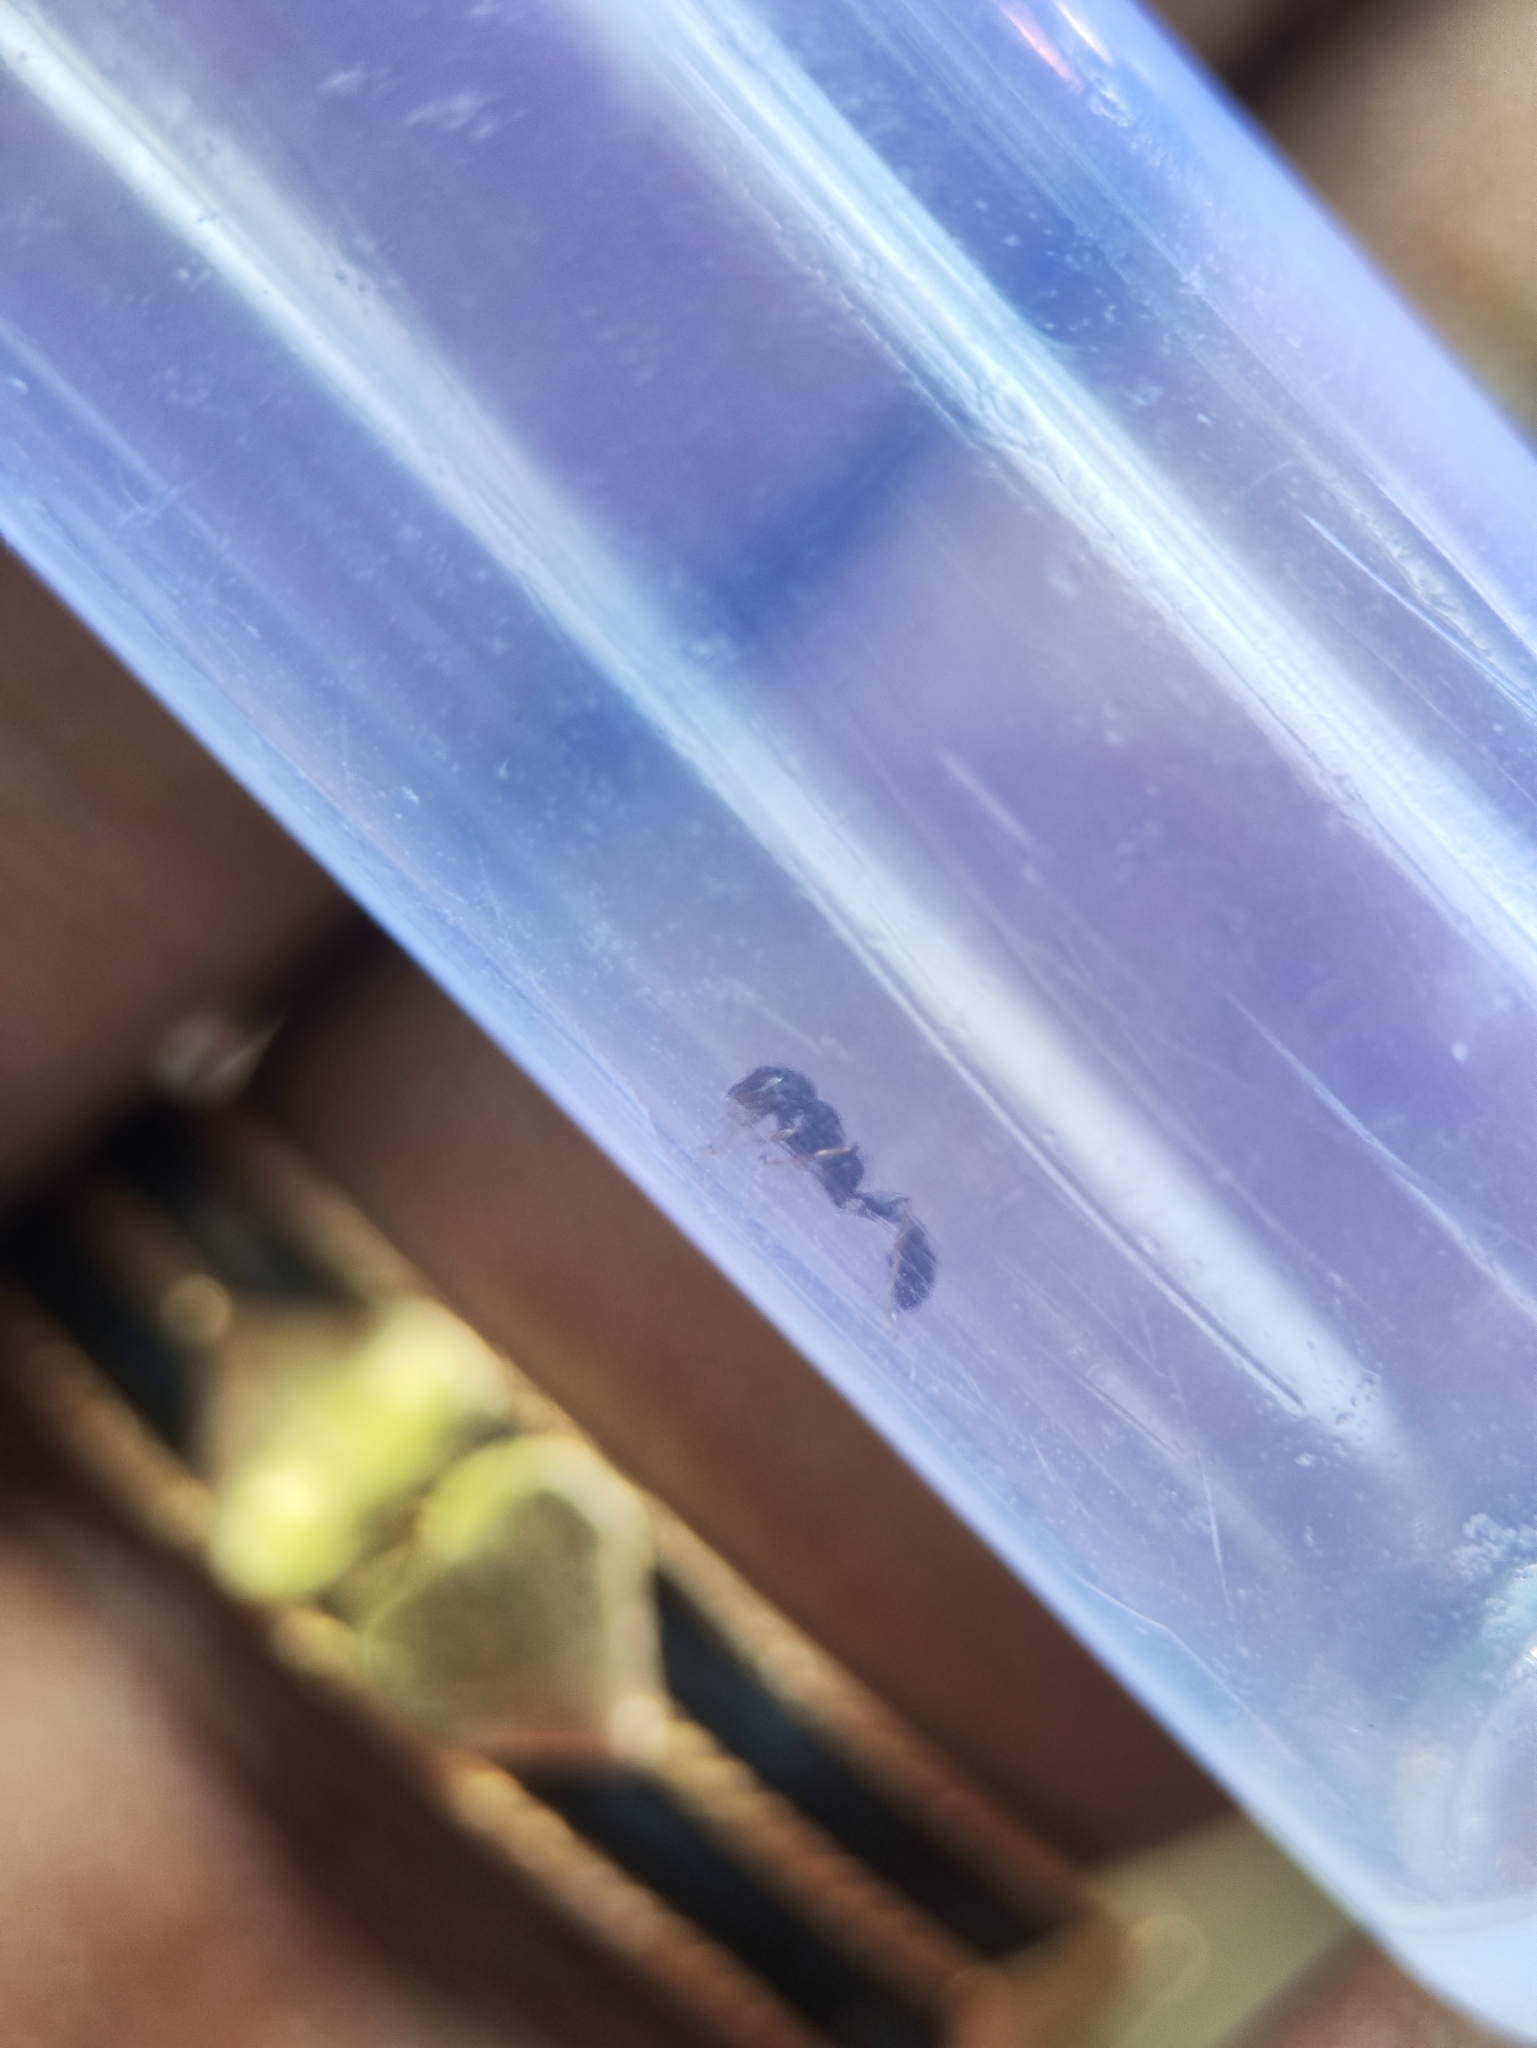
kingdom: Animalia
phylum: Arthropoda
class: Insecta
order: Hymenoptera
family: Formicidae
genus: Tetraponera
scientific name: Tetraponera allaborans
